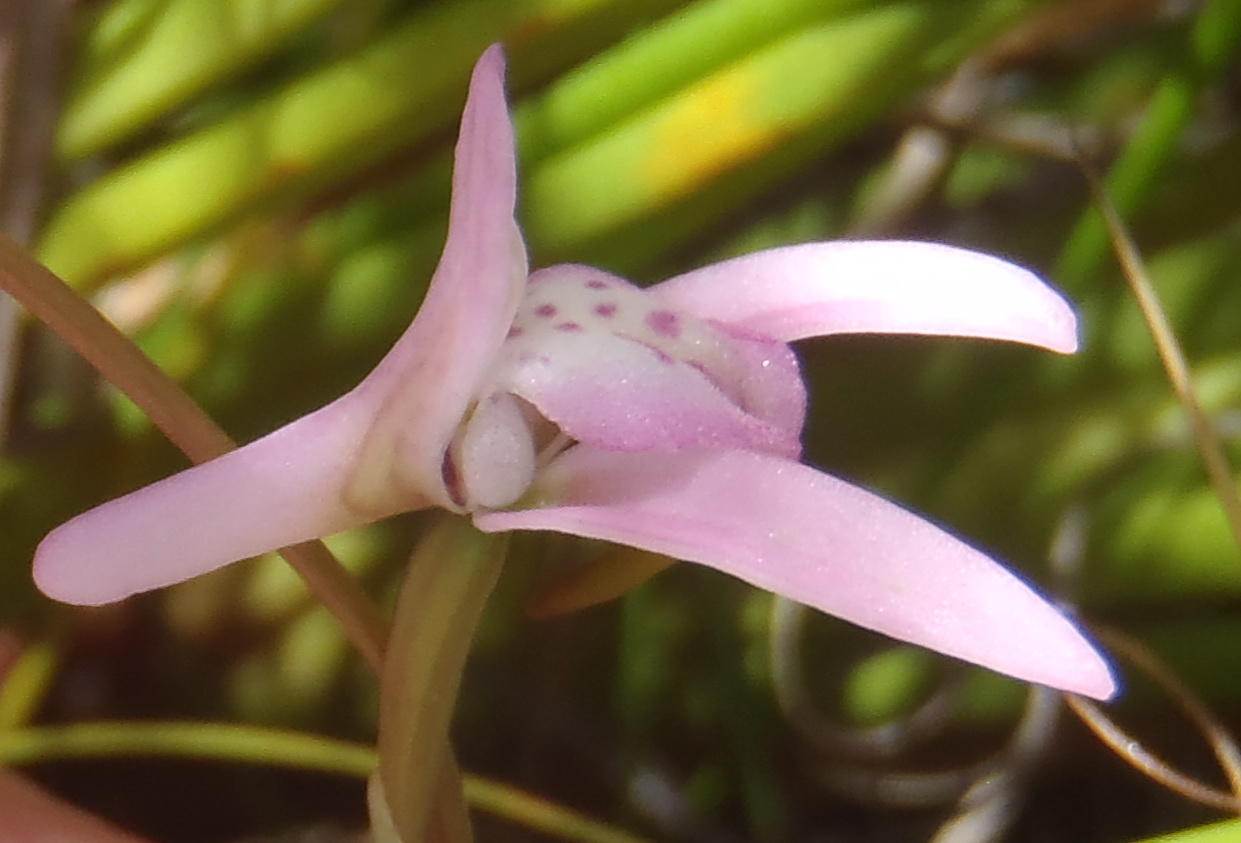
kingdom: Plantae
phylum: Tracheophyta
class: Liliopsida
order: Asparagales
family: Orchidaceae
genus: Disa
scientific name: Disa inflexa
